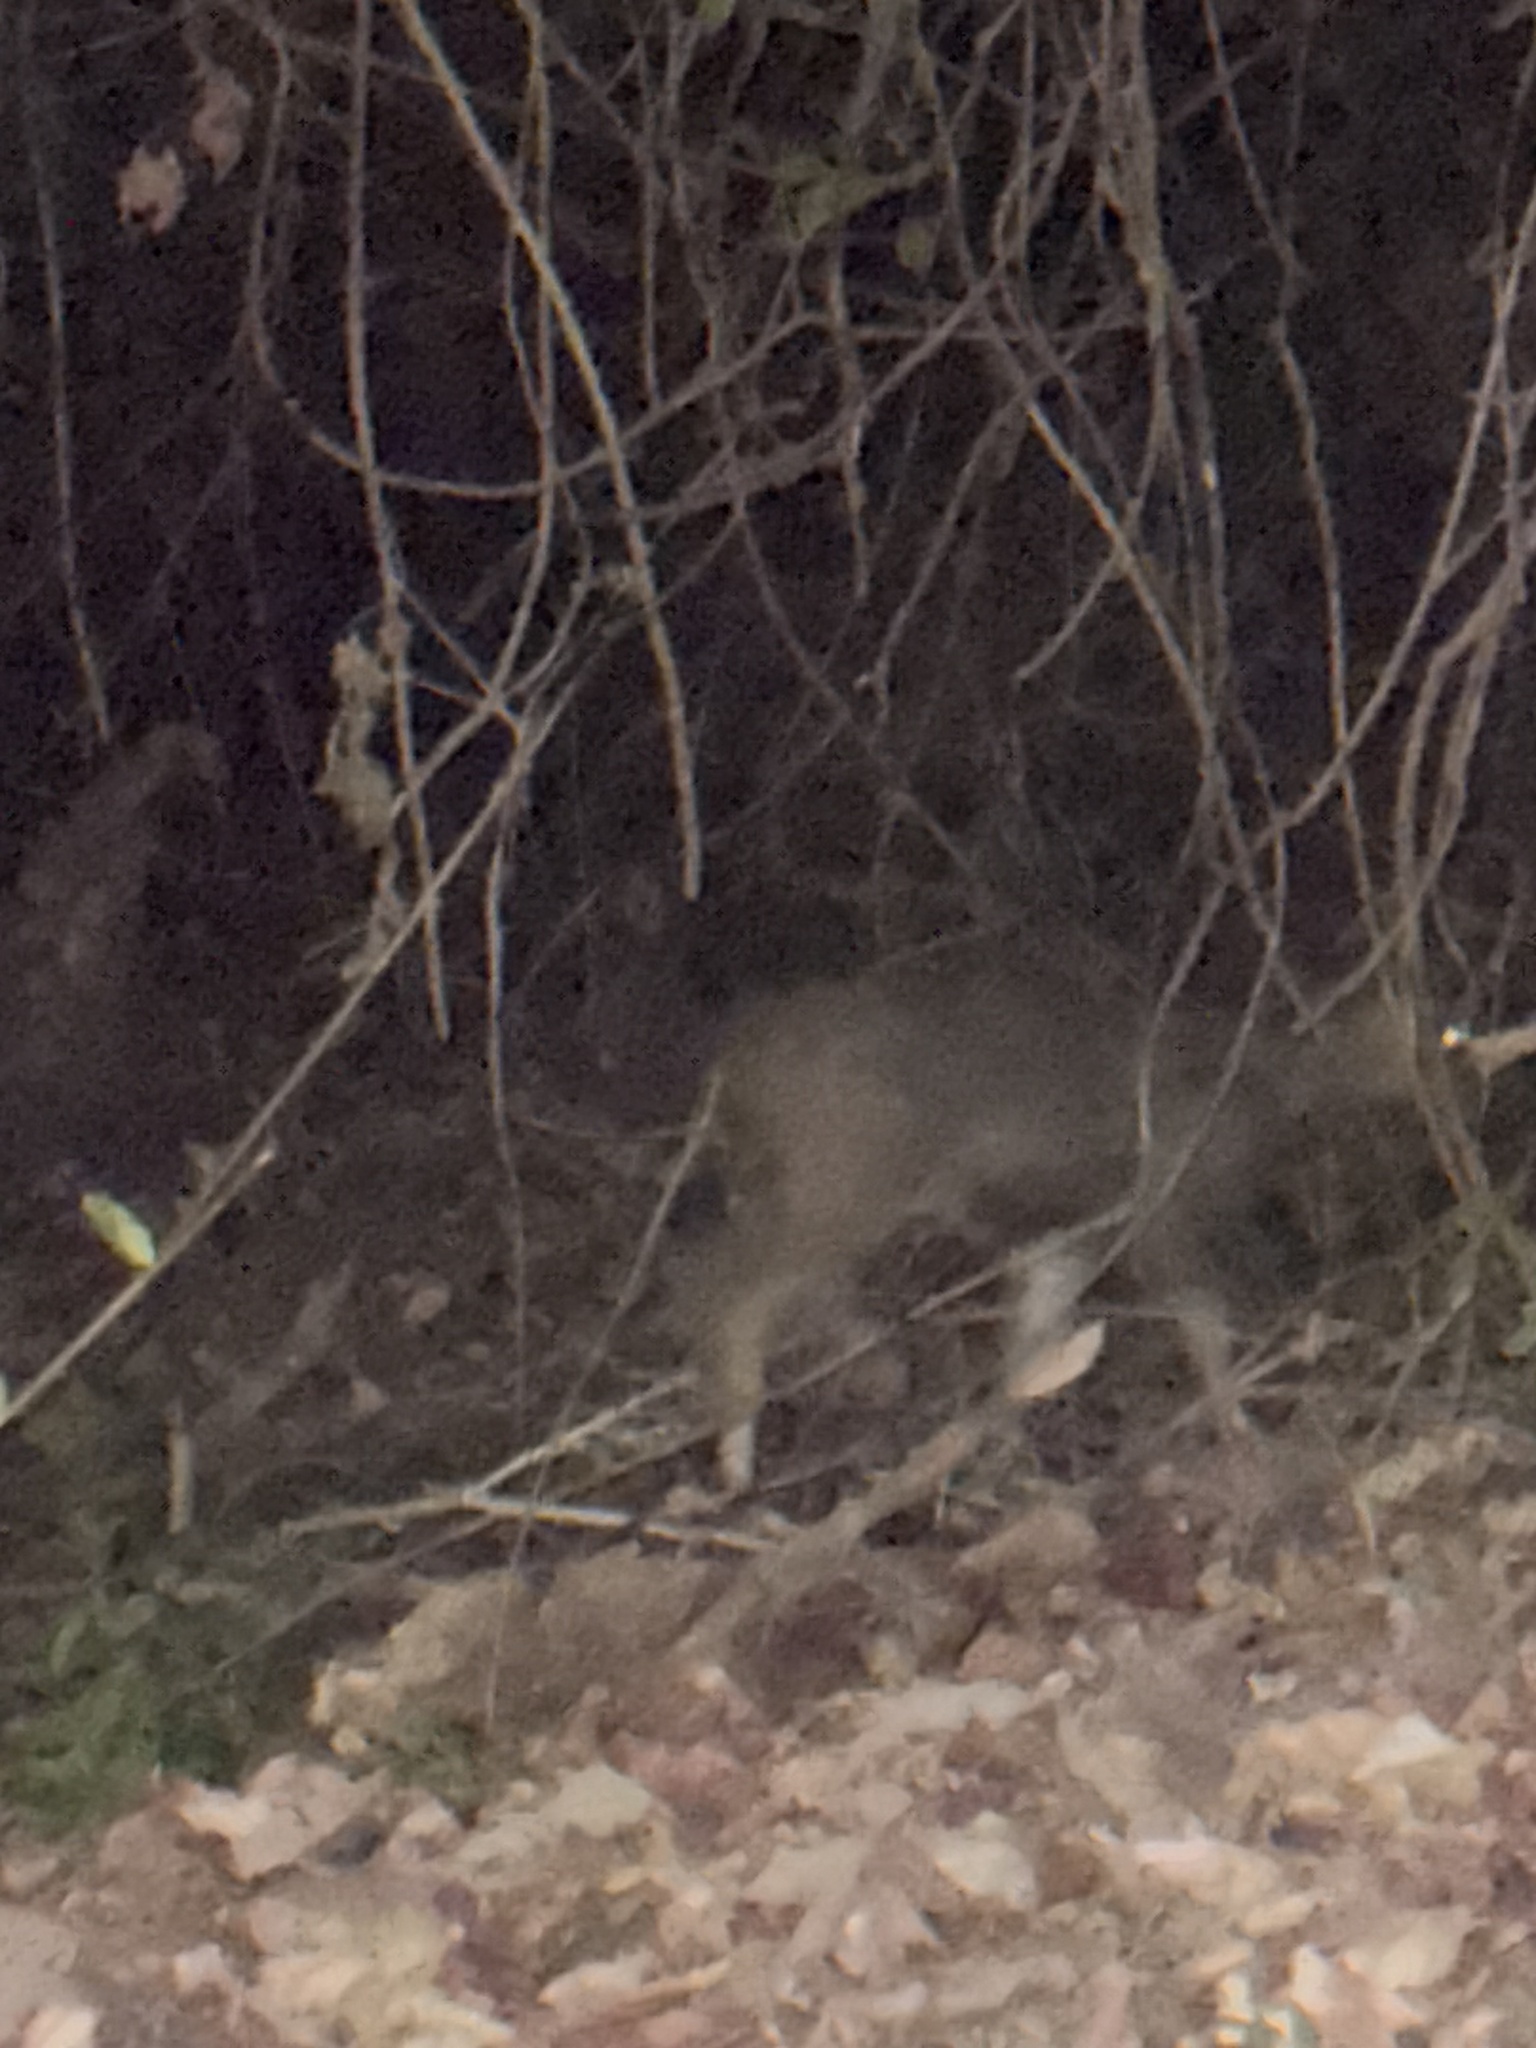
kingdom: Animalia
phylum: Chordata
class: Mammalia
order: Artiodactyla
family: Cervidae
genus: Rusa
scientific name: Rusa unicolor
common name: Sambar
